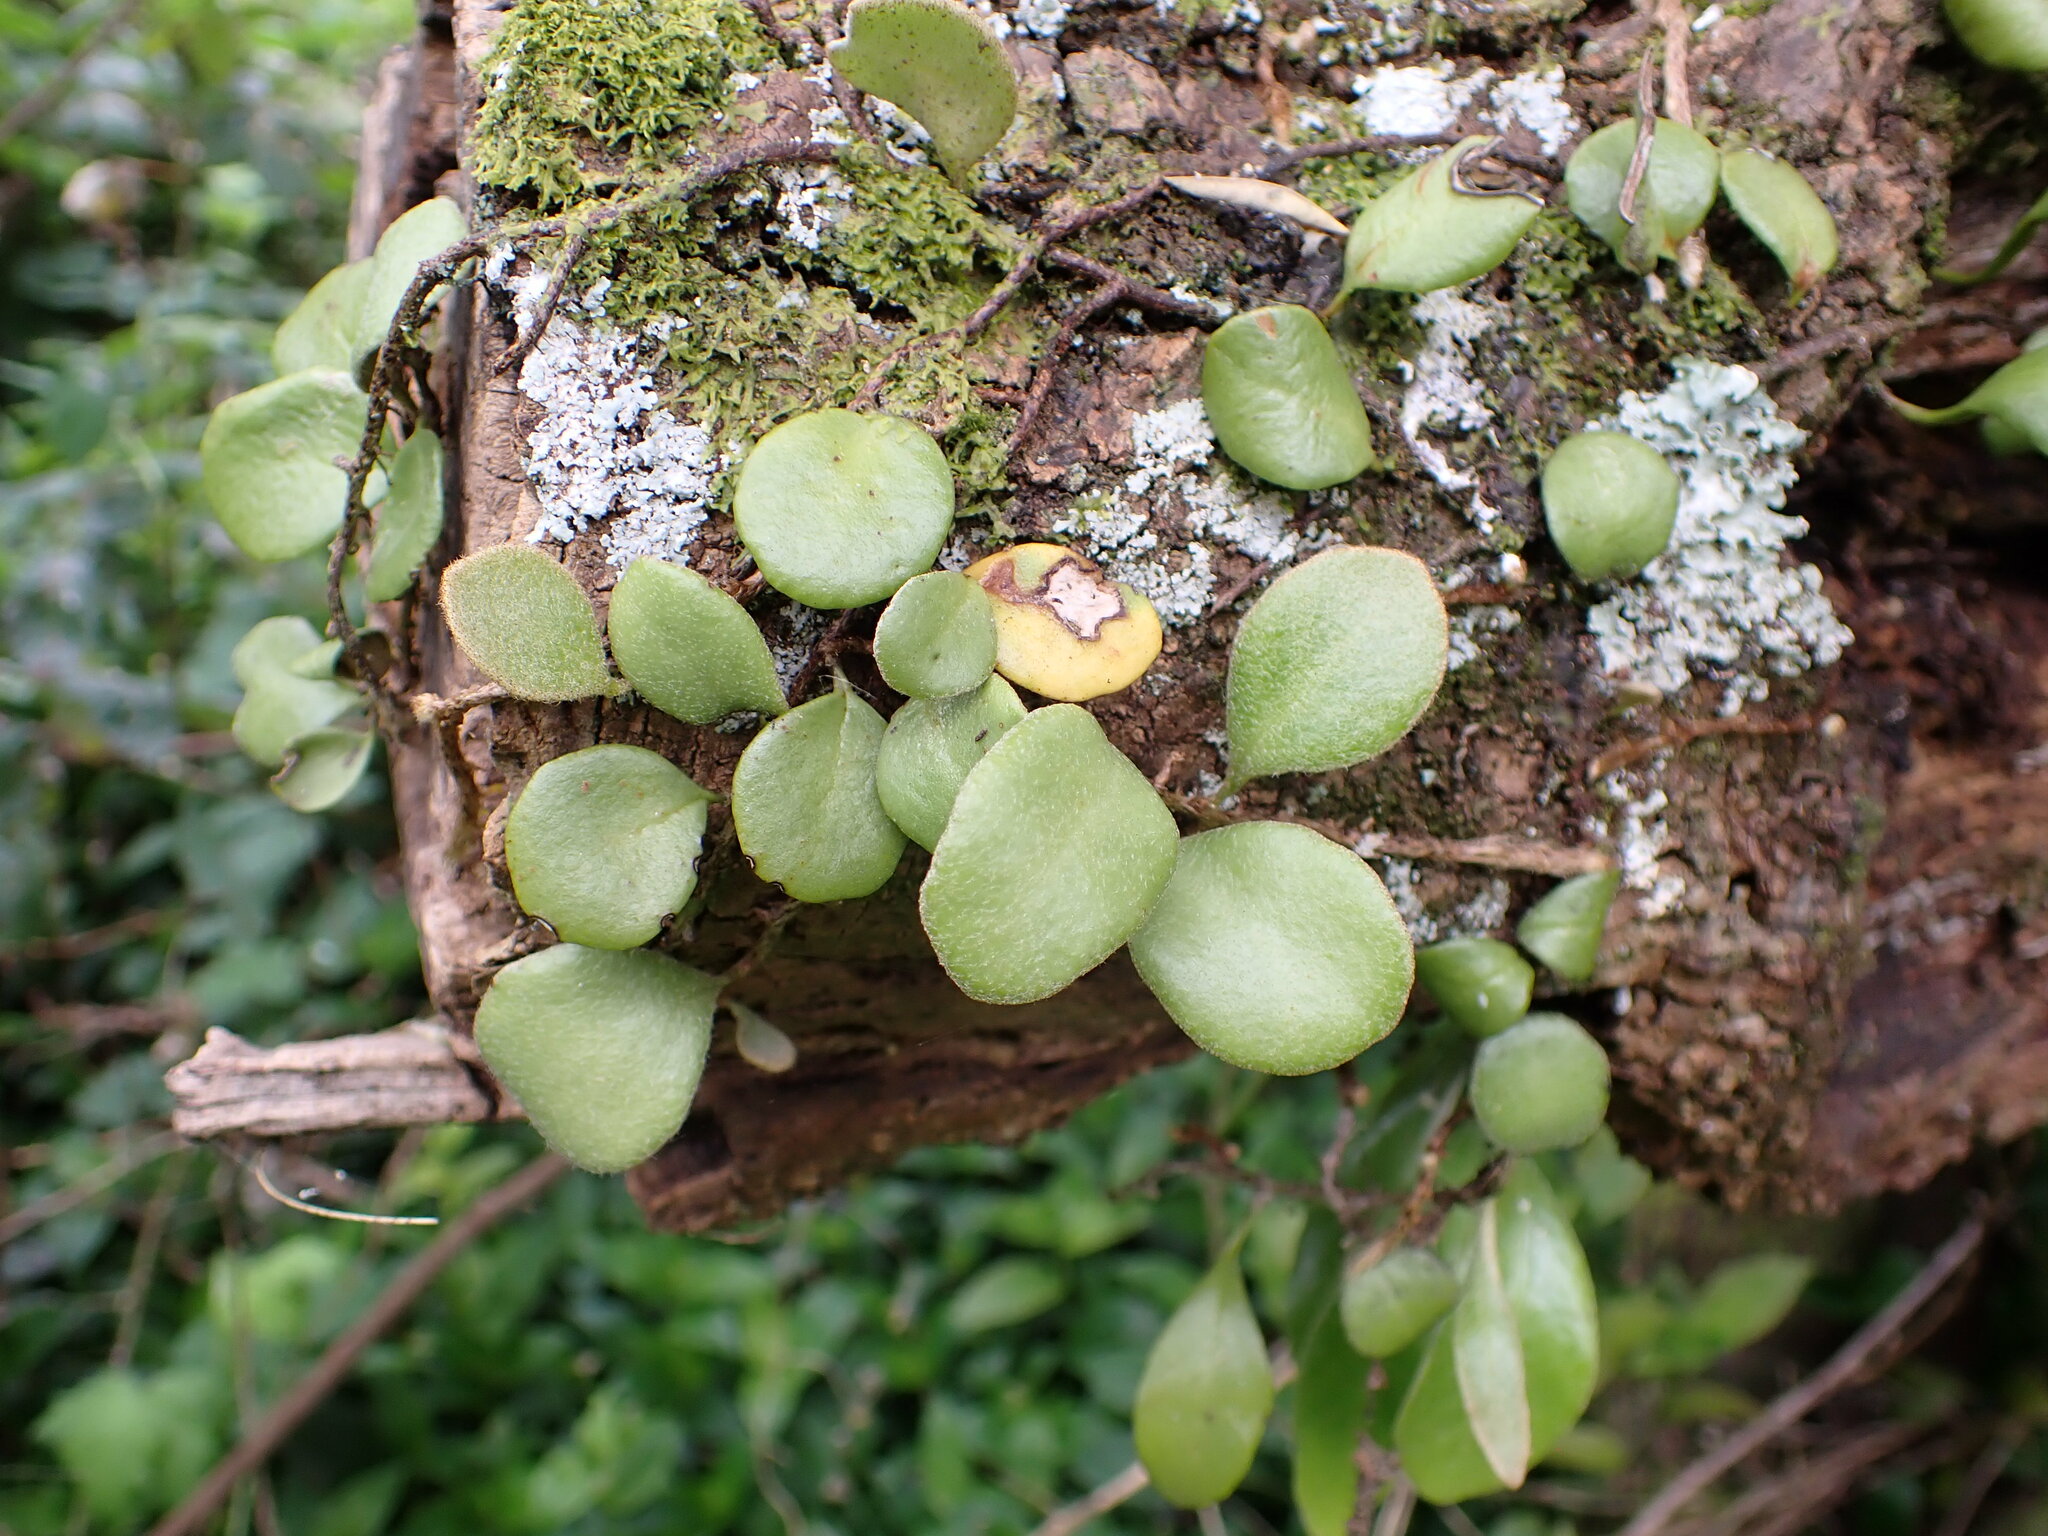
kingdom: Plantae
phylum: Tracheophyta
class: Polypodiopsida
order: Polypodiales
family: Polypodiaceae
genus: Pyrrosia
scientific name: Pyrrosia eleagnifolia
